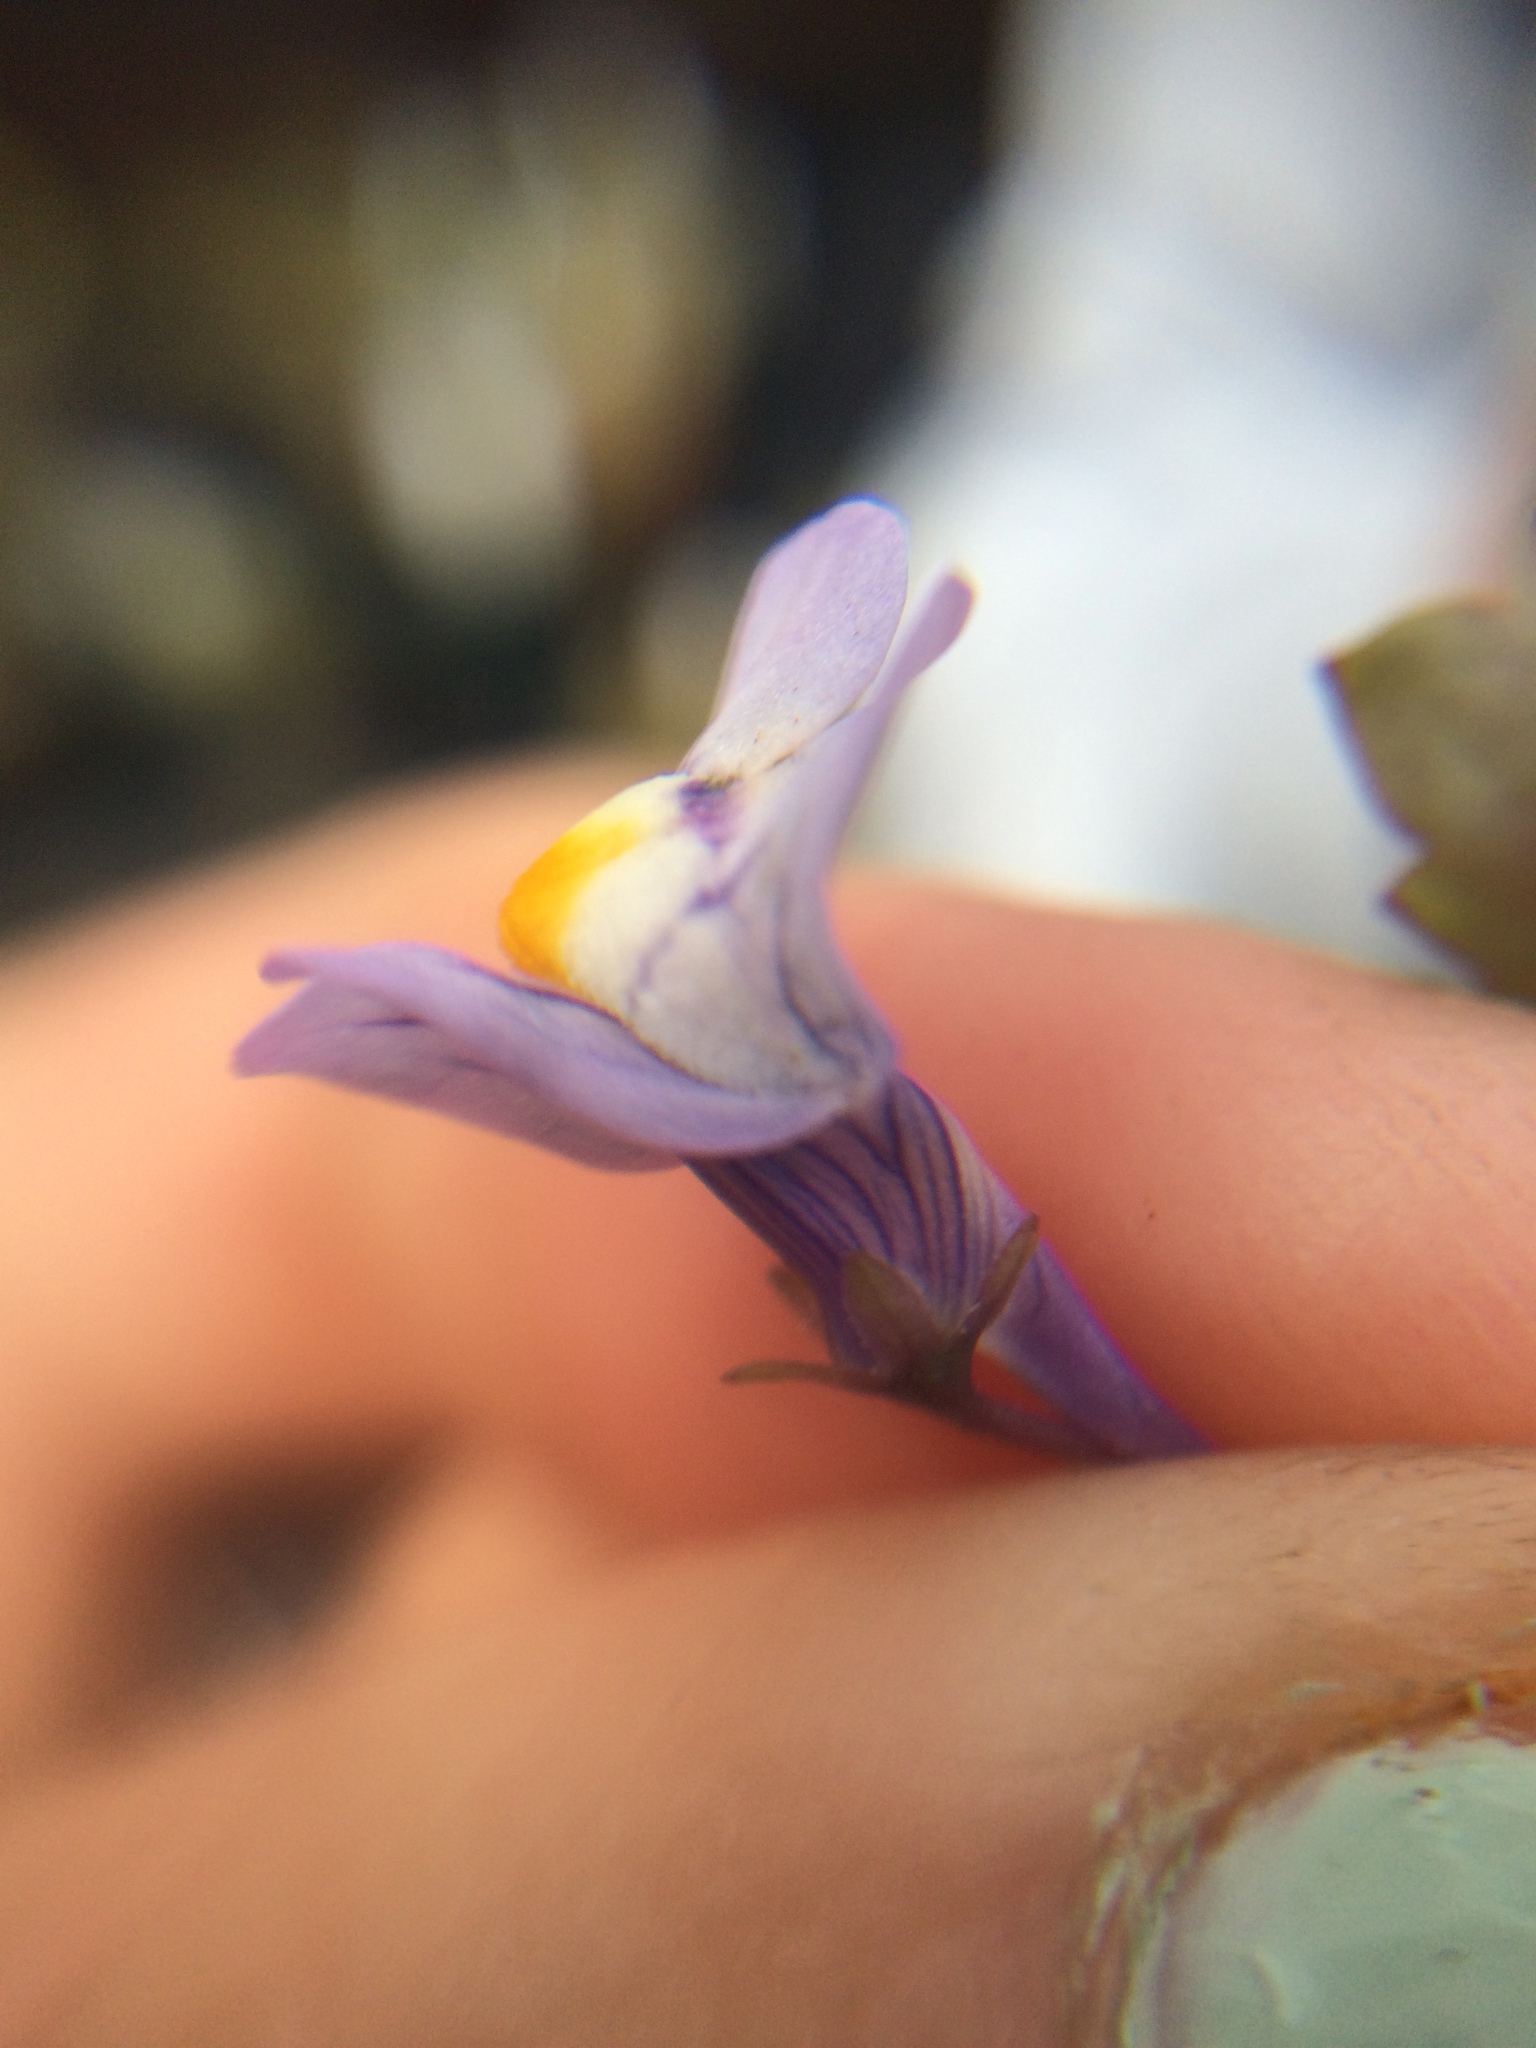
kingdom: Plantae
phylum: Tracheophyta
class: Magnoliopsida
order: Lamiales
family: Plantaginaceae
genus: Cymbalaria
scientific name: Cymbalaria muralis
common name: Ivy-leaved toadflax
